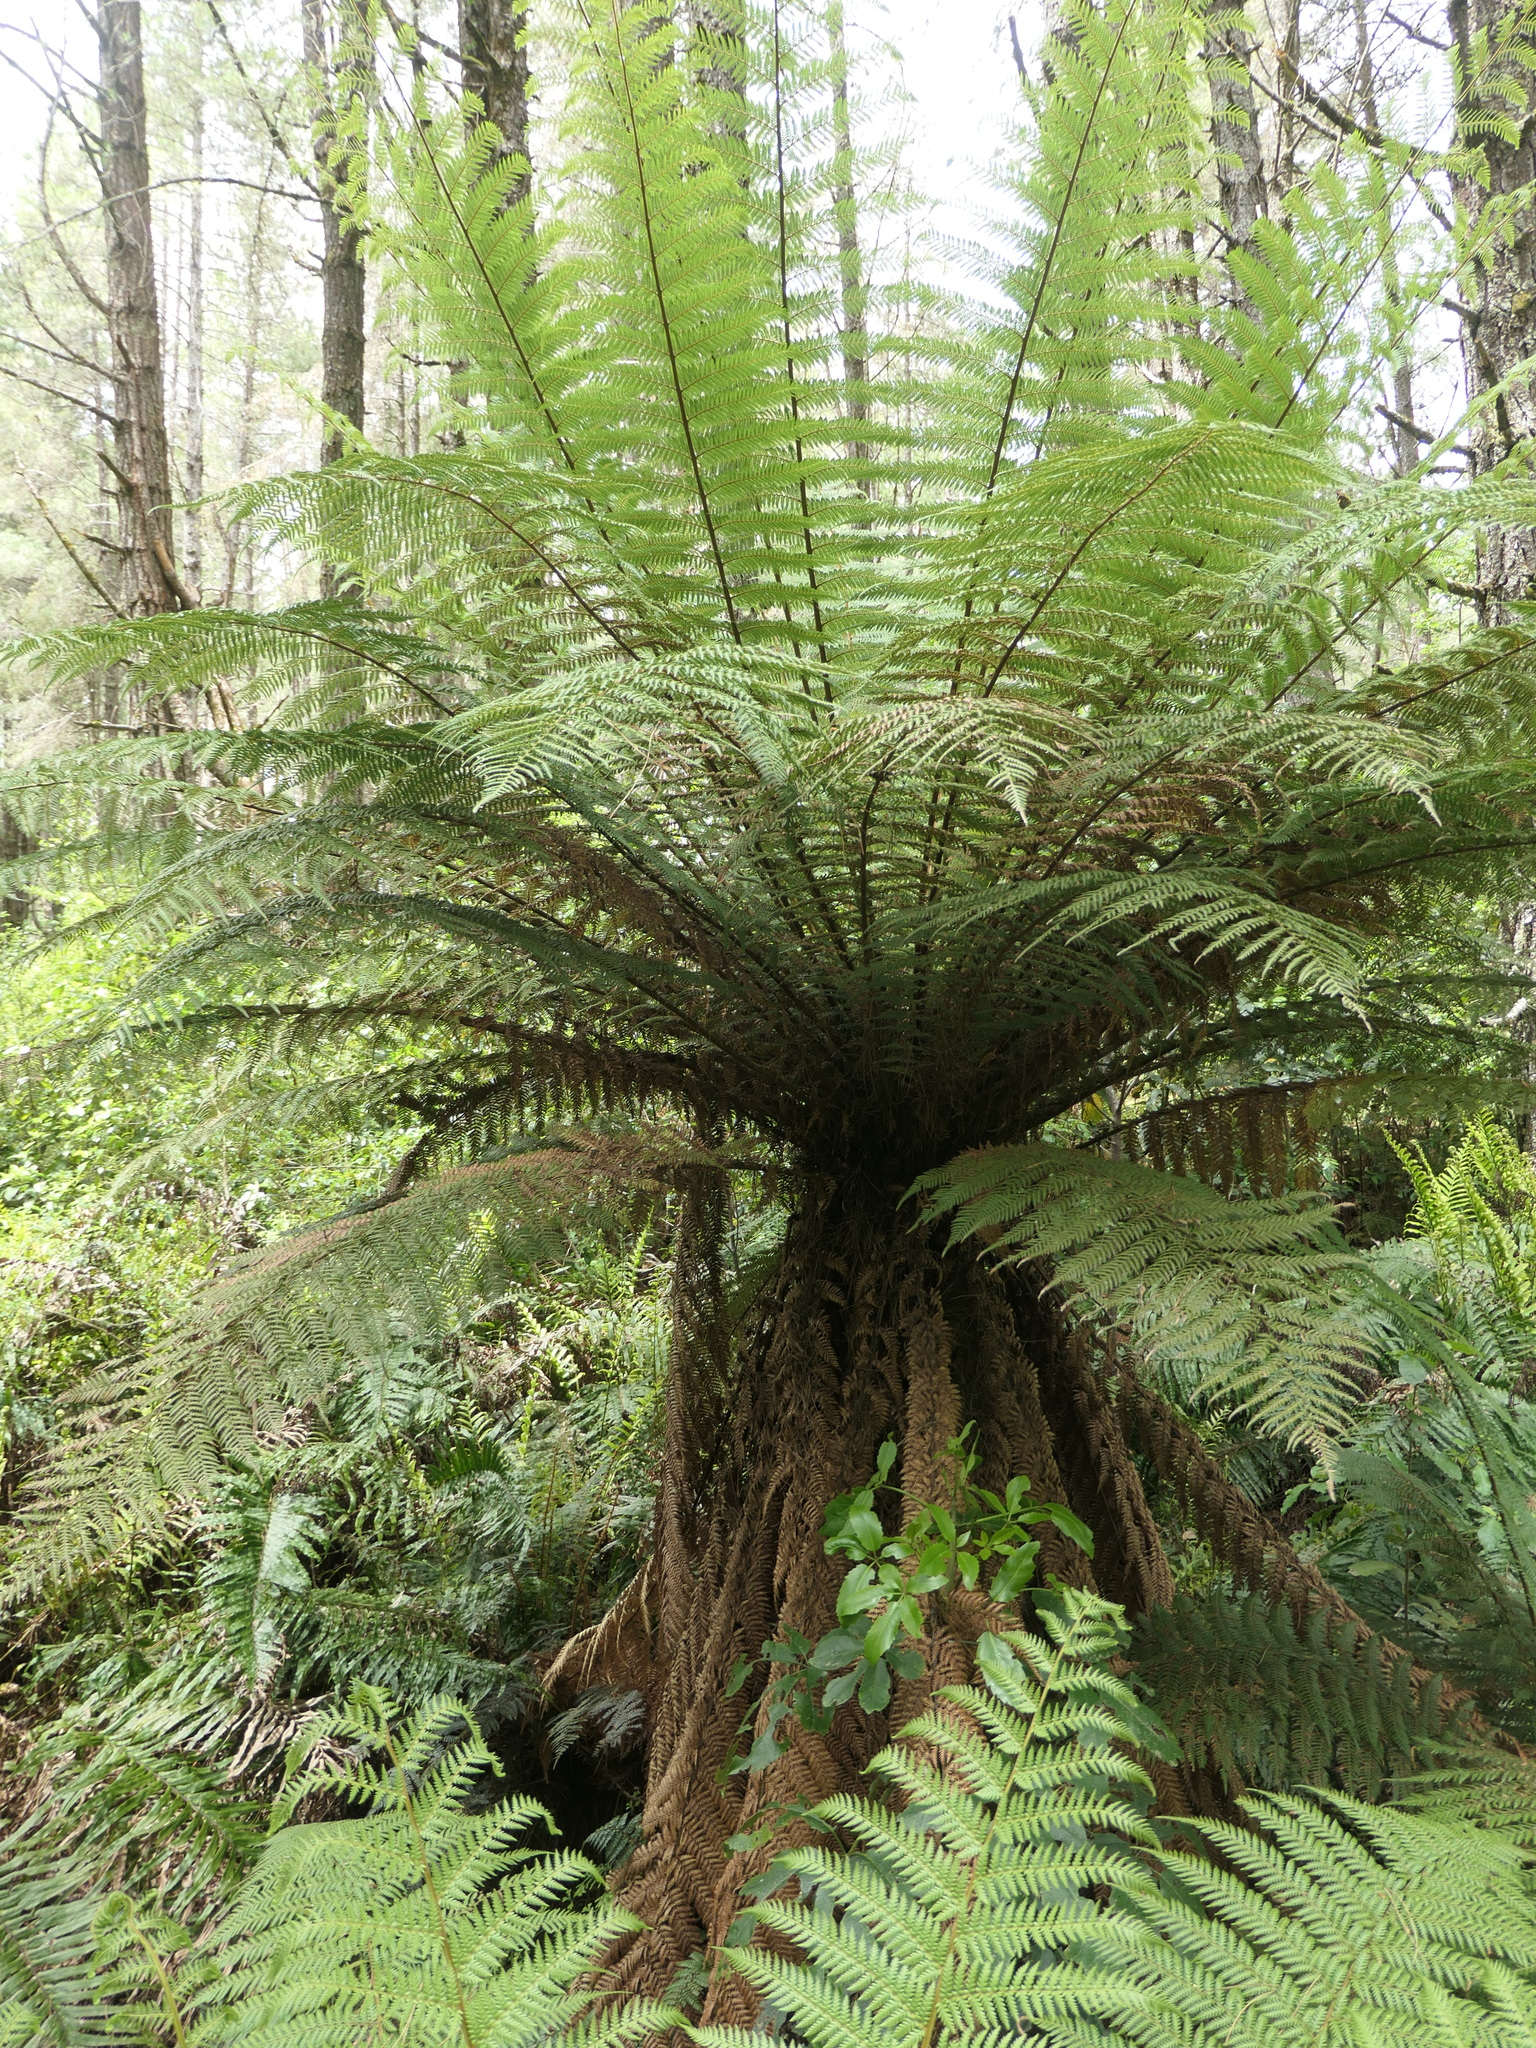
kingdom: Plantae
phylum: Tracheophyta
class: Polypodiopsida
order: Cyatheales
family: Dicksoniaceae
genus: Dicksonia
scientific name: Dicksonia fibrosa
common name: Golden tree fern
